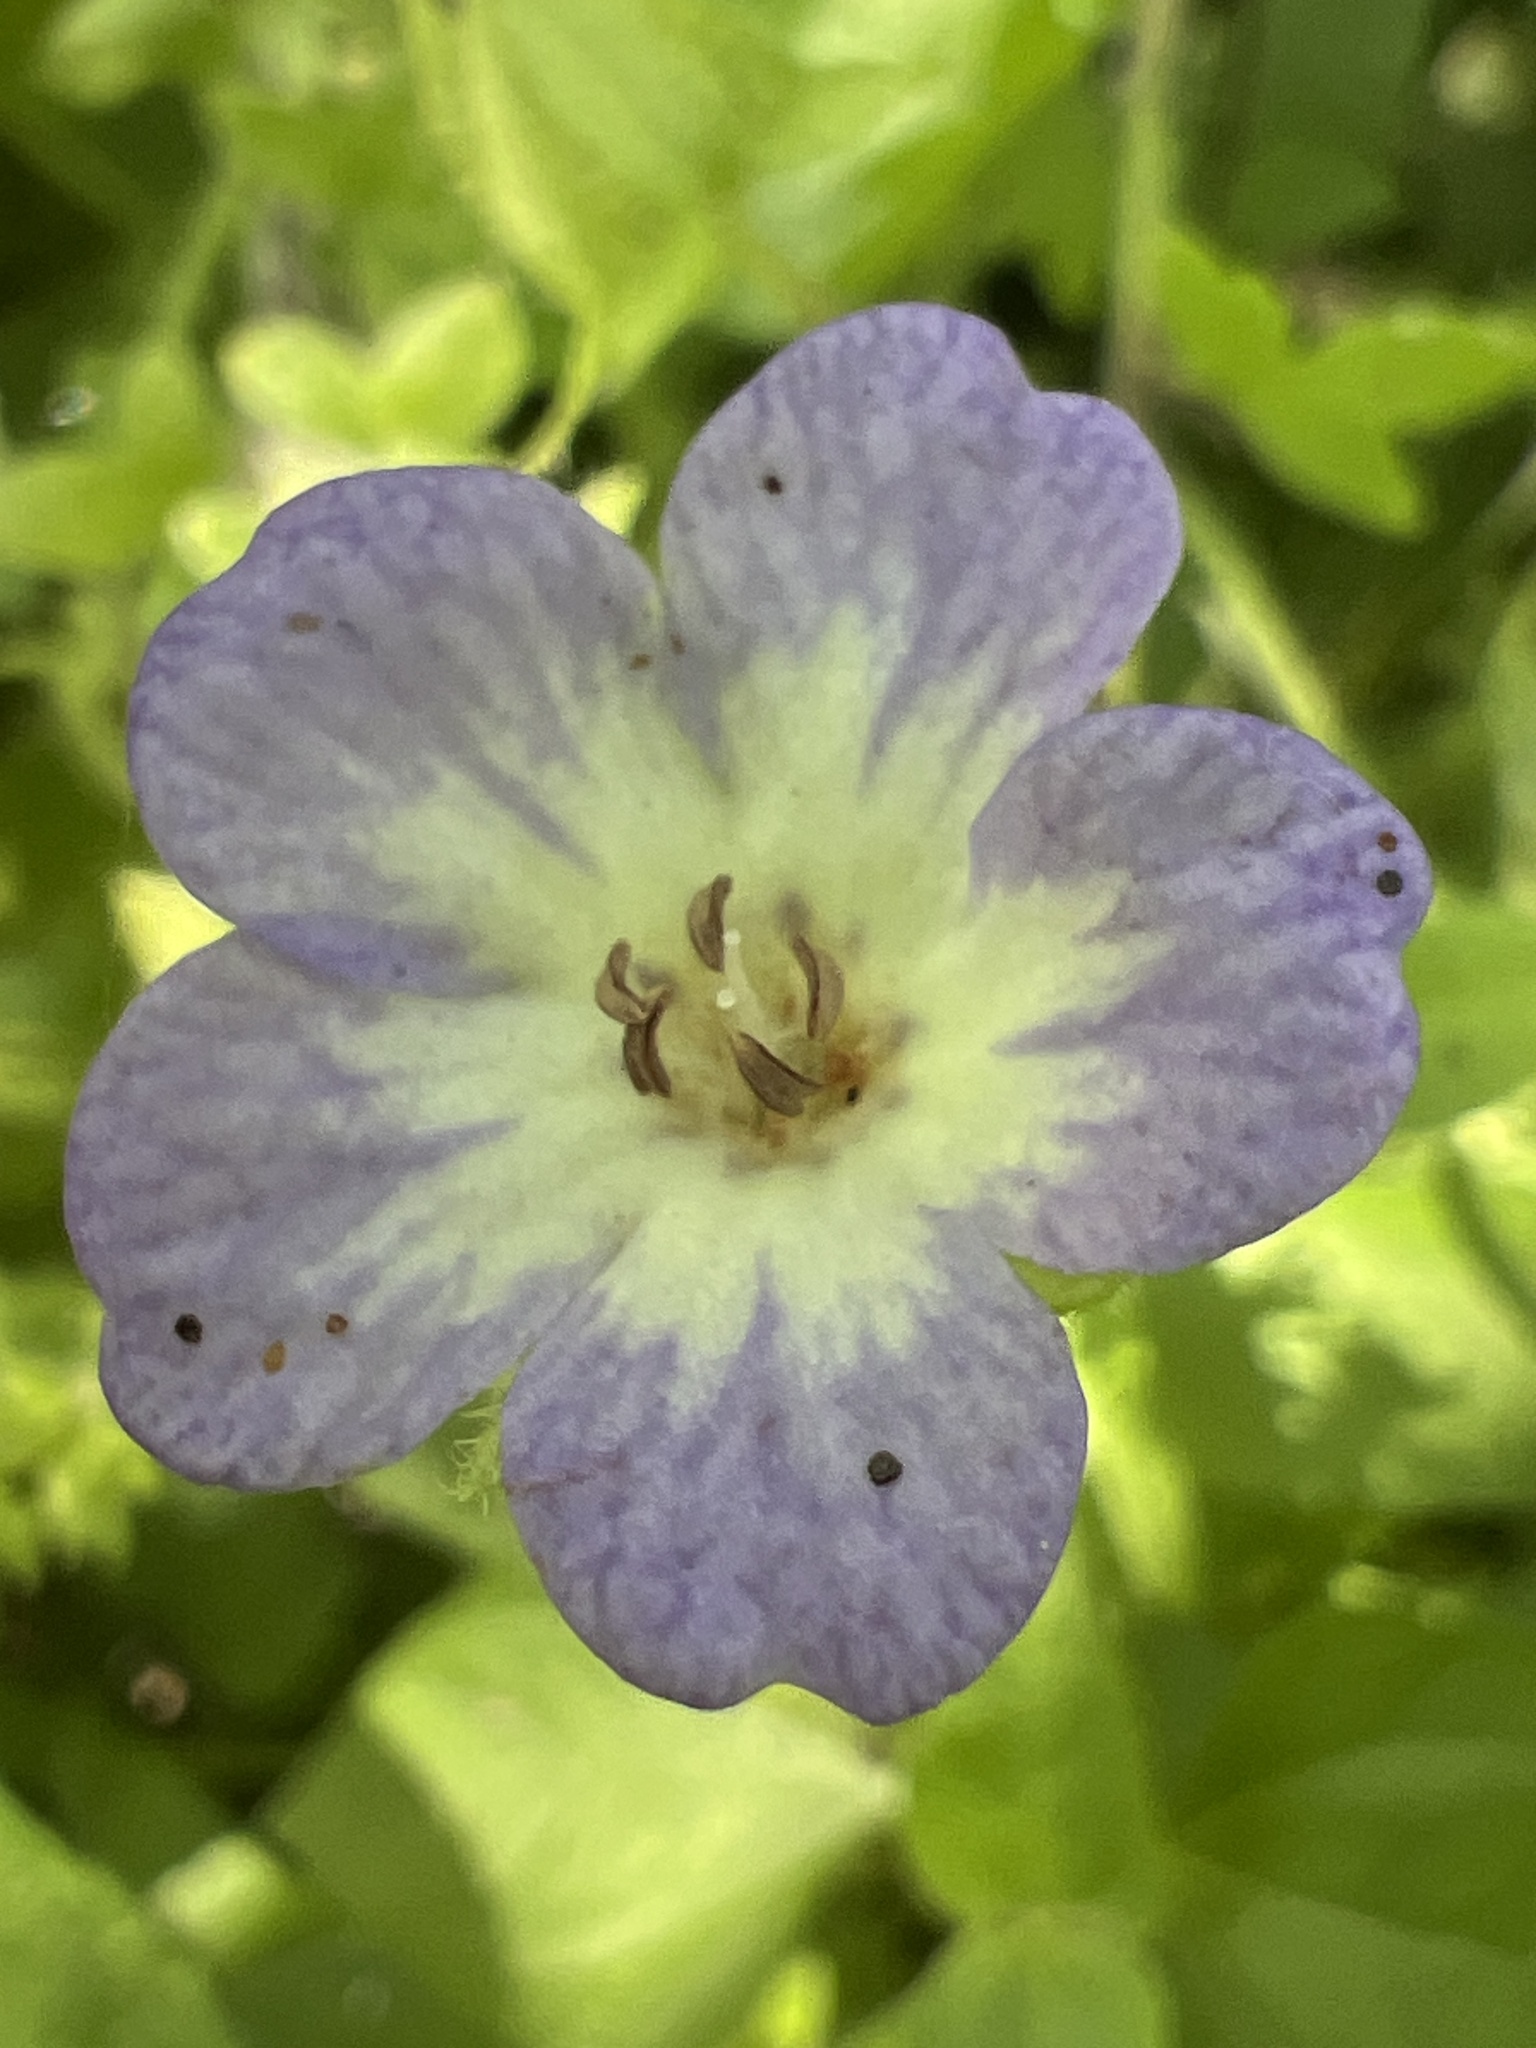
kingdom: Plantae
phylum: Tracheophyta
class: Magnoliopsida
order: Boraginales
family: Hydrophyllaceae
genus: Nemophila
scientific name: Nemophila phacelioides
